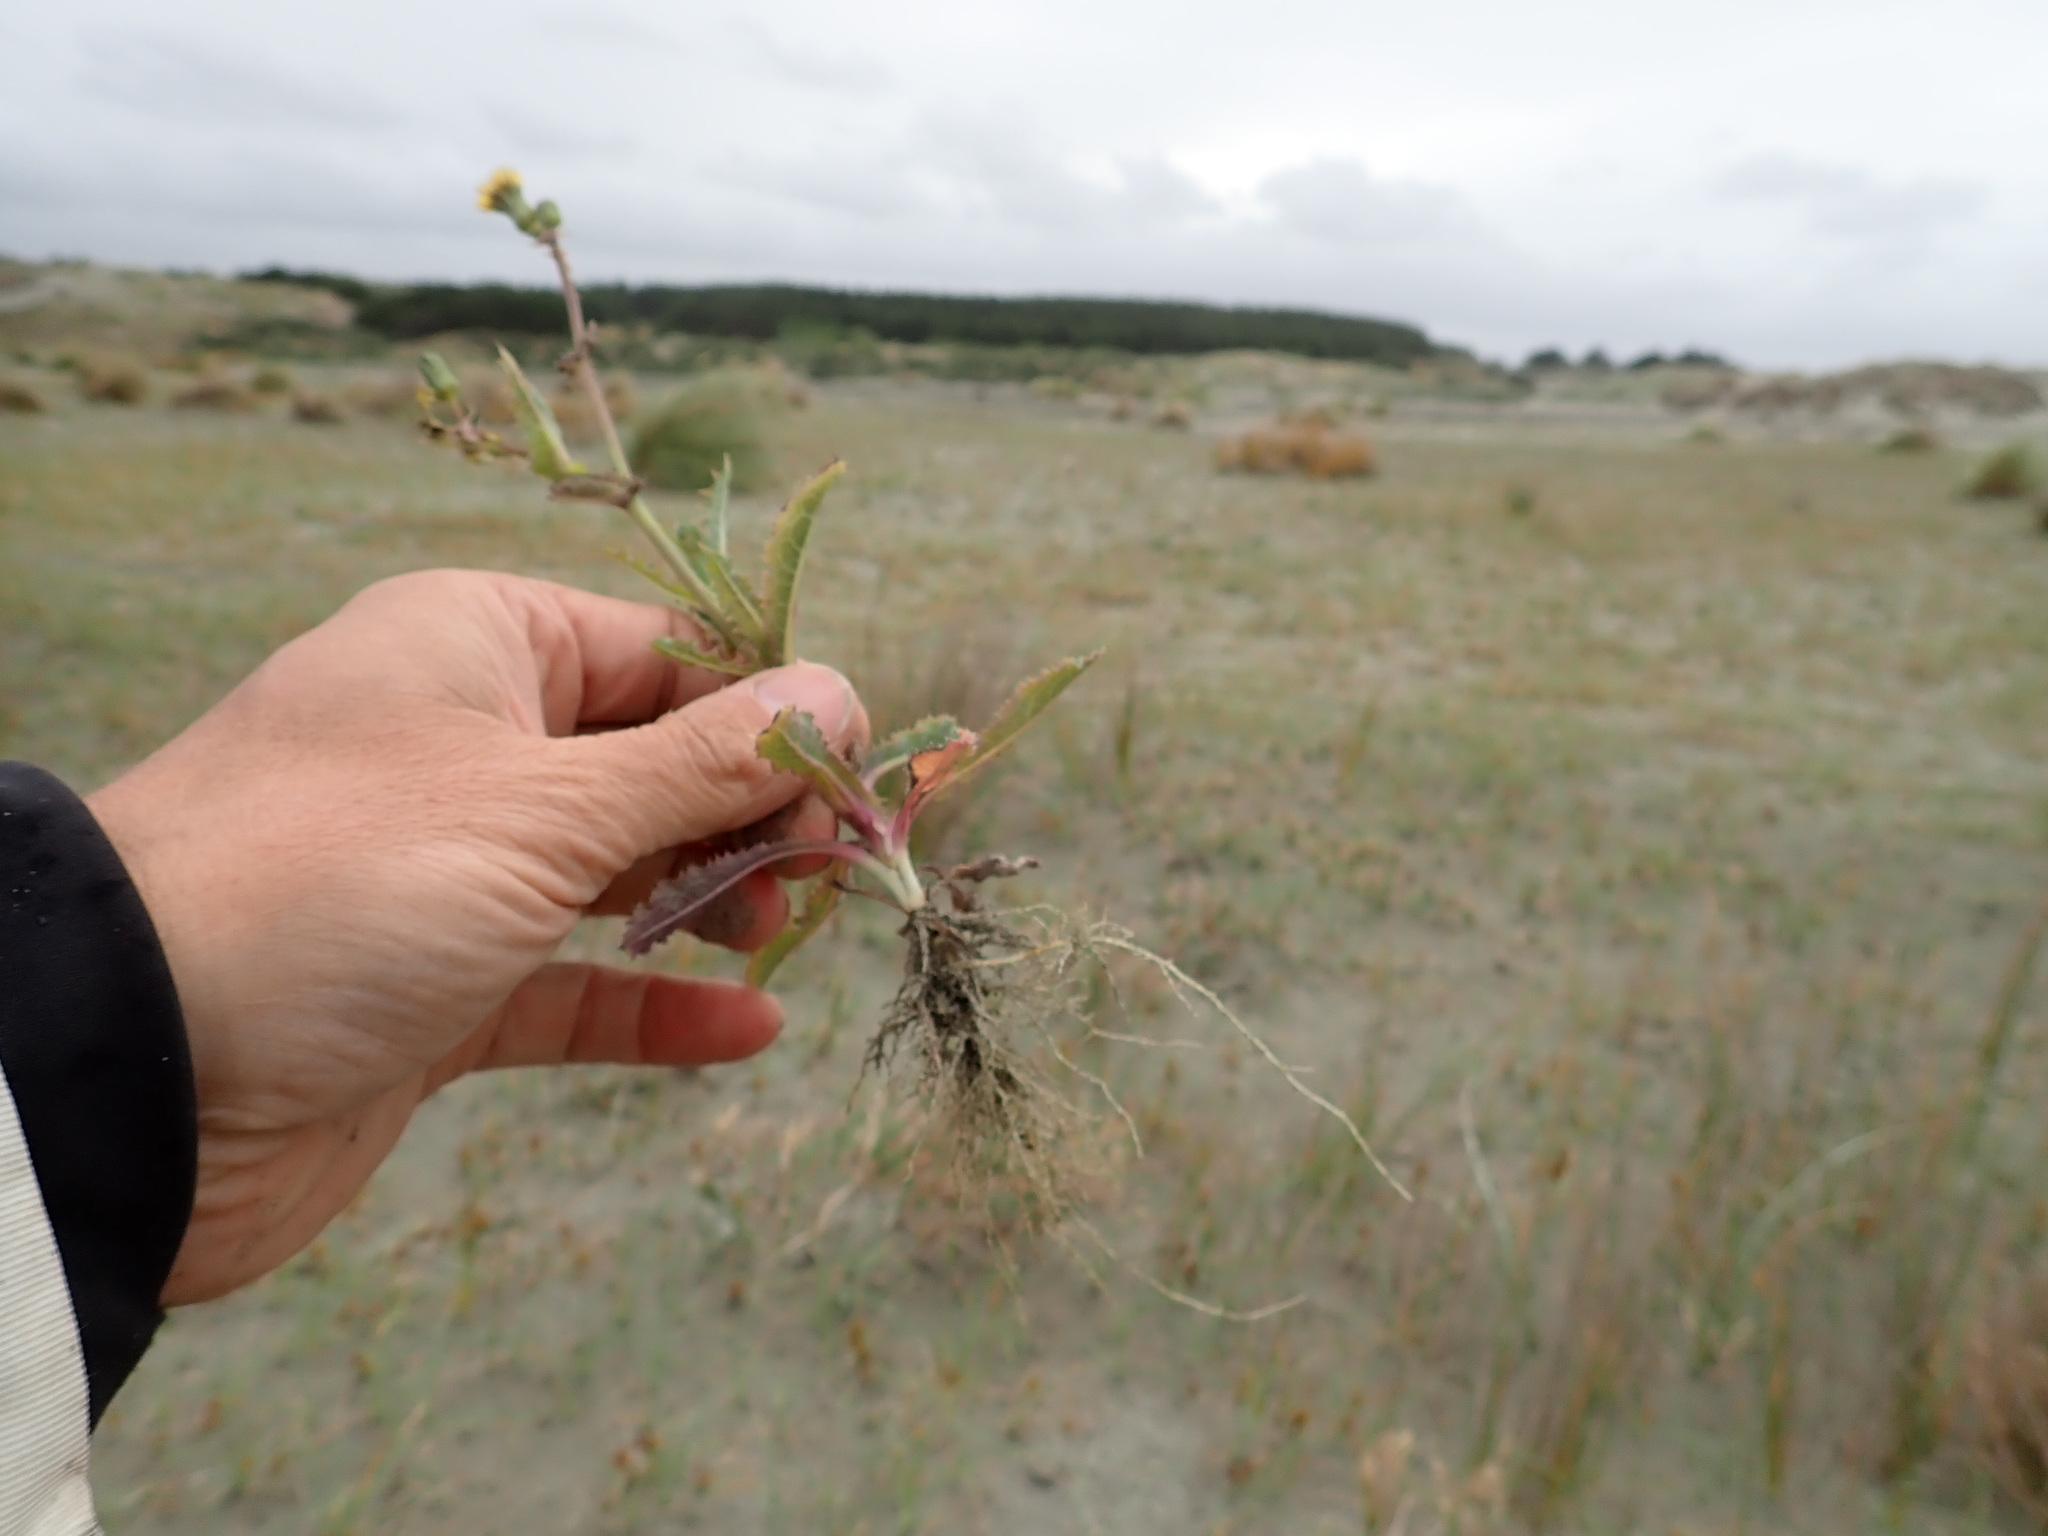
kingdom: Plantae
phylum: Tracheophyta
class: Magnoliopsida
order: Asterales
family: Asteraceae
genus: Sonchus
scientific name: Sonchus asper
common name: Prickly sow-thistle
